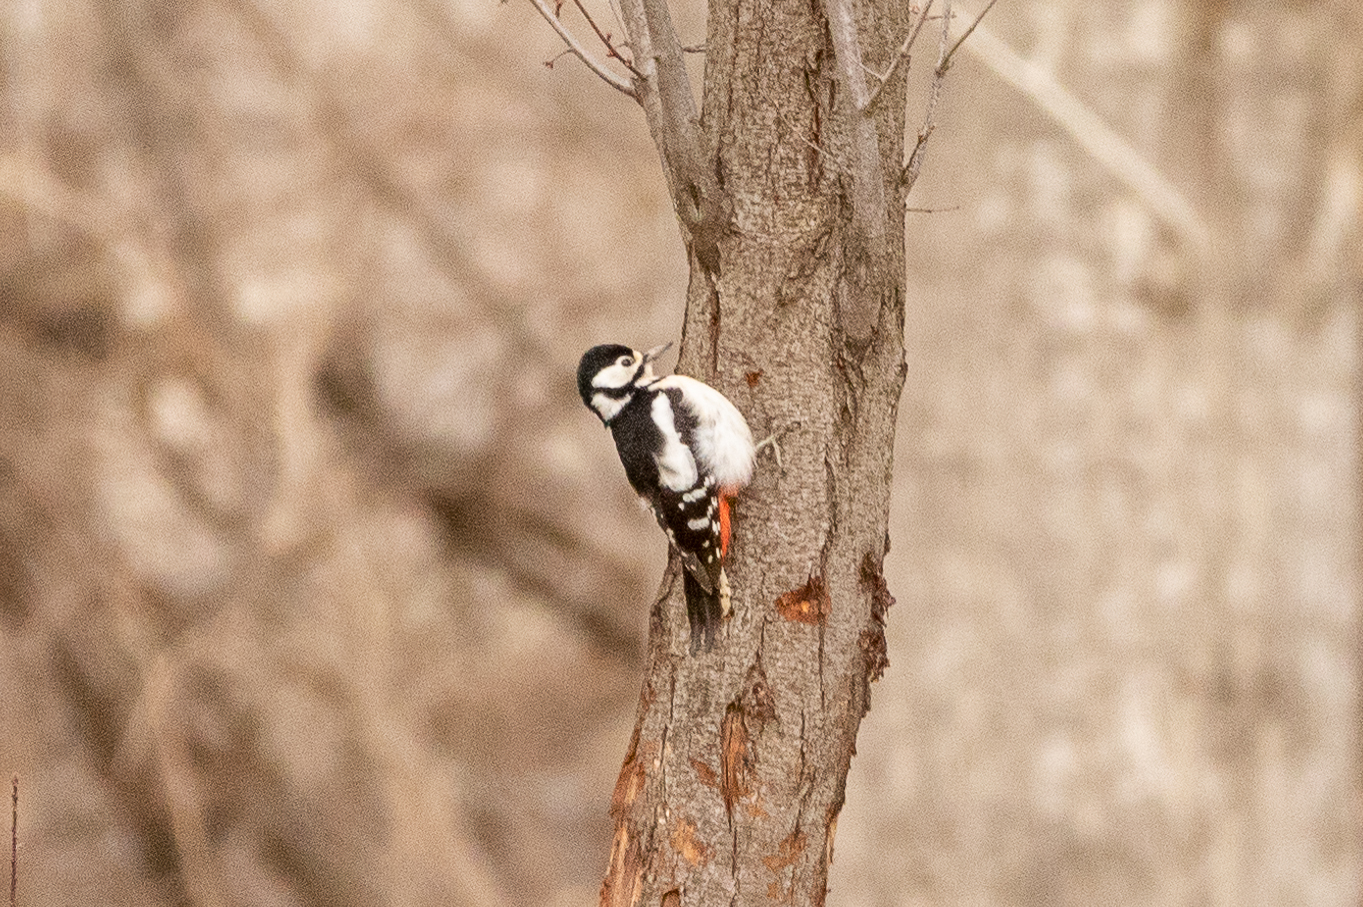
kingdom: Animalia
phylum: Chordata
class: Aves
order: Piciformes
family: Picidae
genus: Dendrocopos
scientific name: Dendrocopos major
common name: Great spotted woodpecker
